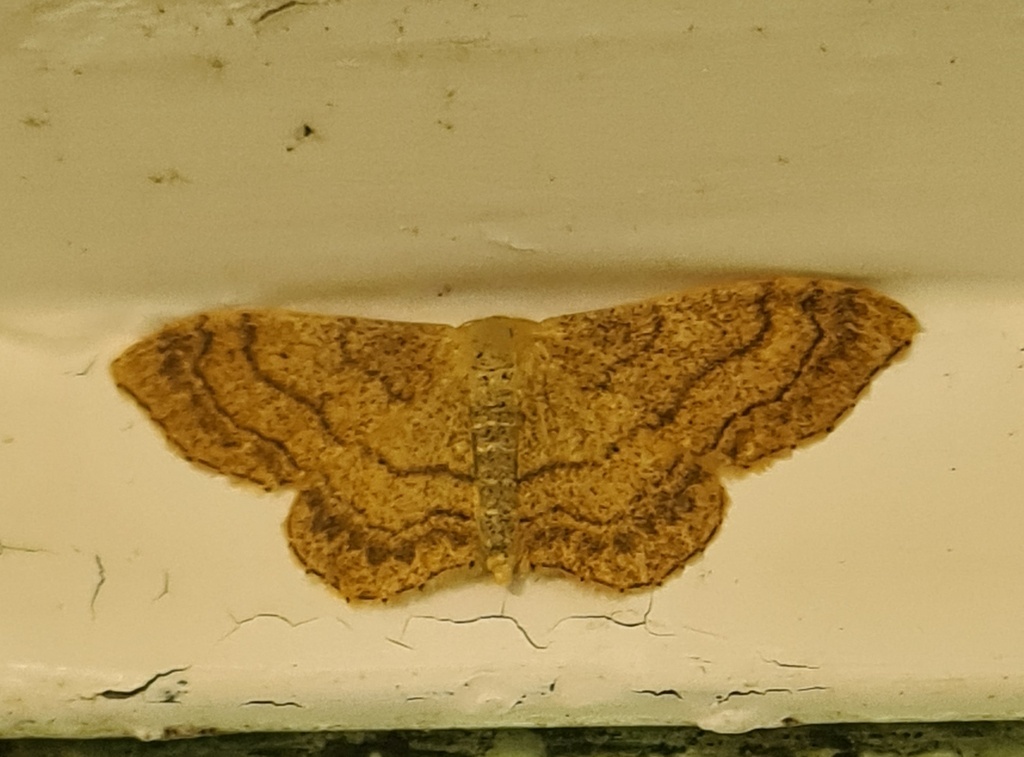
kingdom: Animalia
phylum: Arthropoda
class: Insecta
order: Lepidoptera
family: Geometridae
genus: Idaea
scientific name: Idaea aversata
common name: Riband wave
